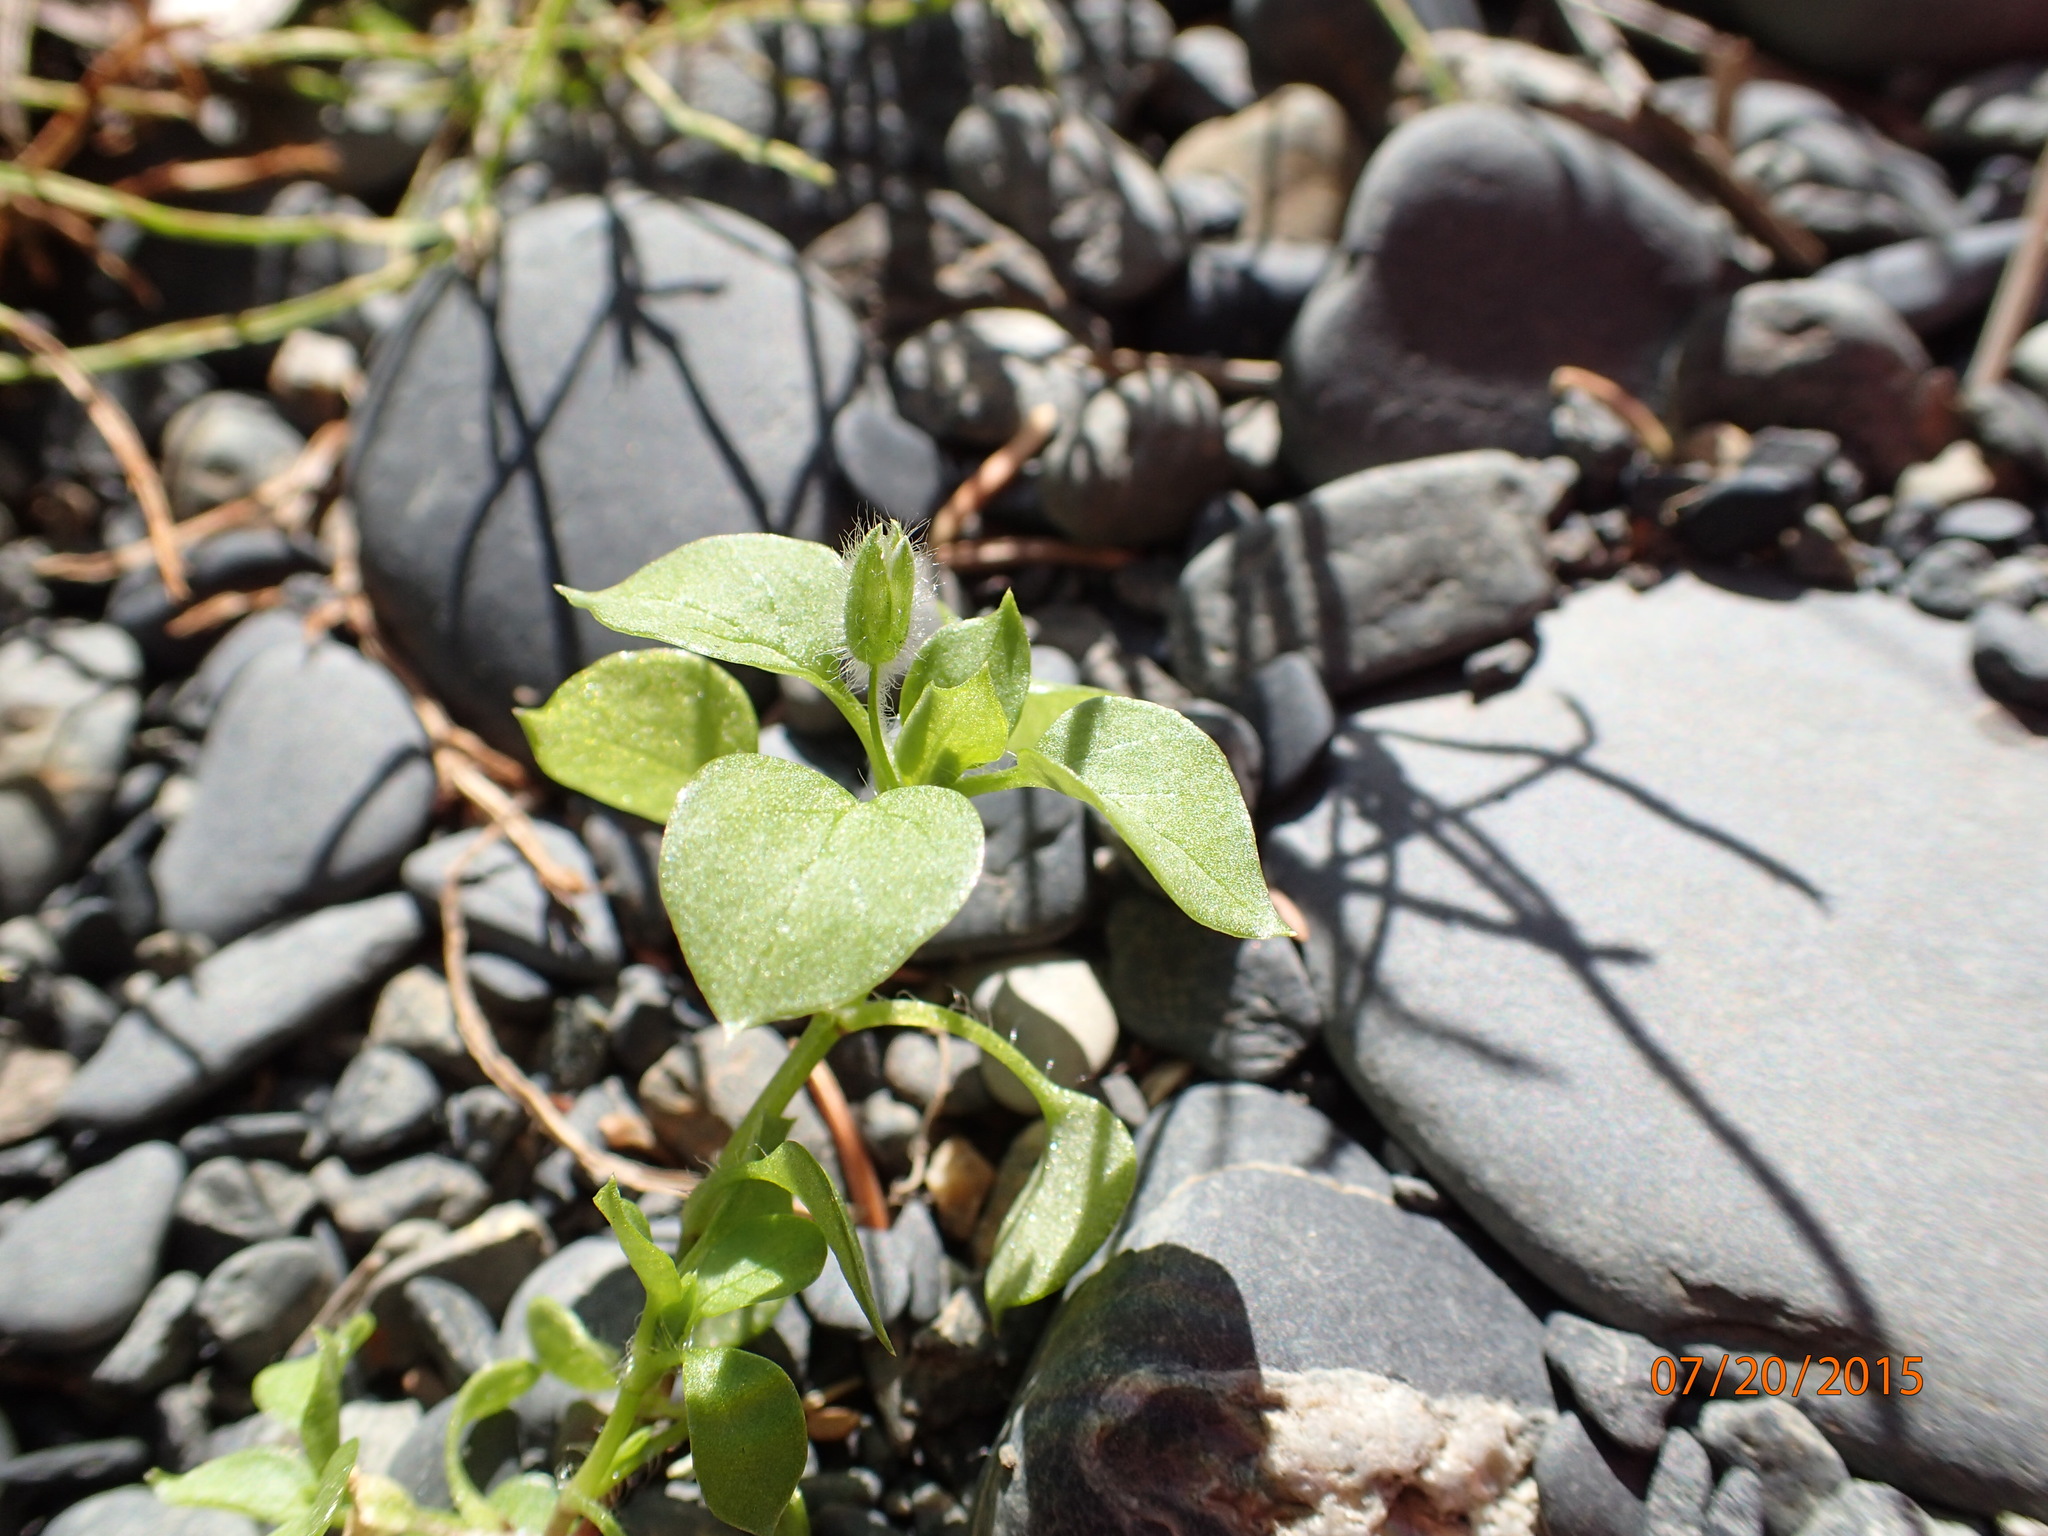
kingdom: Plantae
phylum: Tracheophyta
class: Magnoliopsida
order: Caryophyllales
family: Caryophyllaceae
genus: Stellaria
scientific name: Stellaria media
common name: Common chickweed
